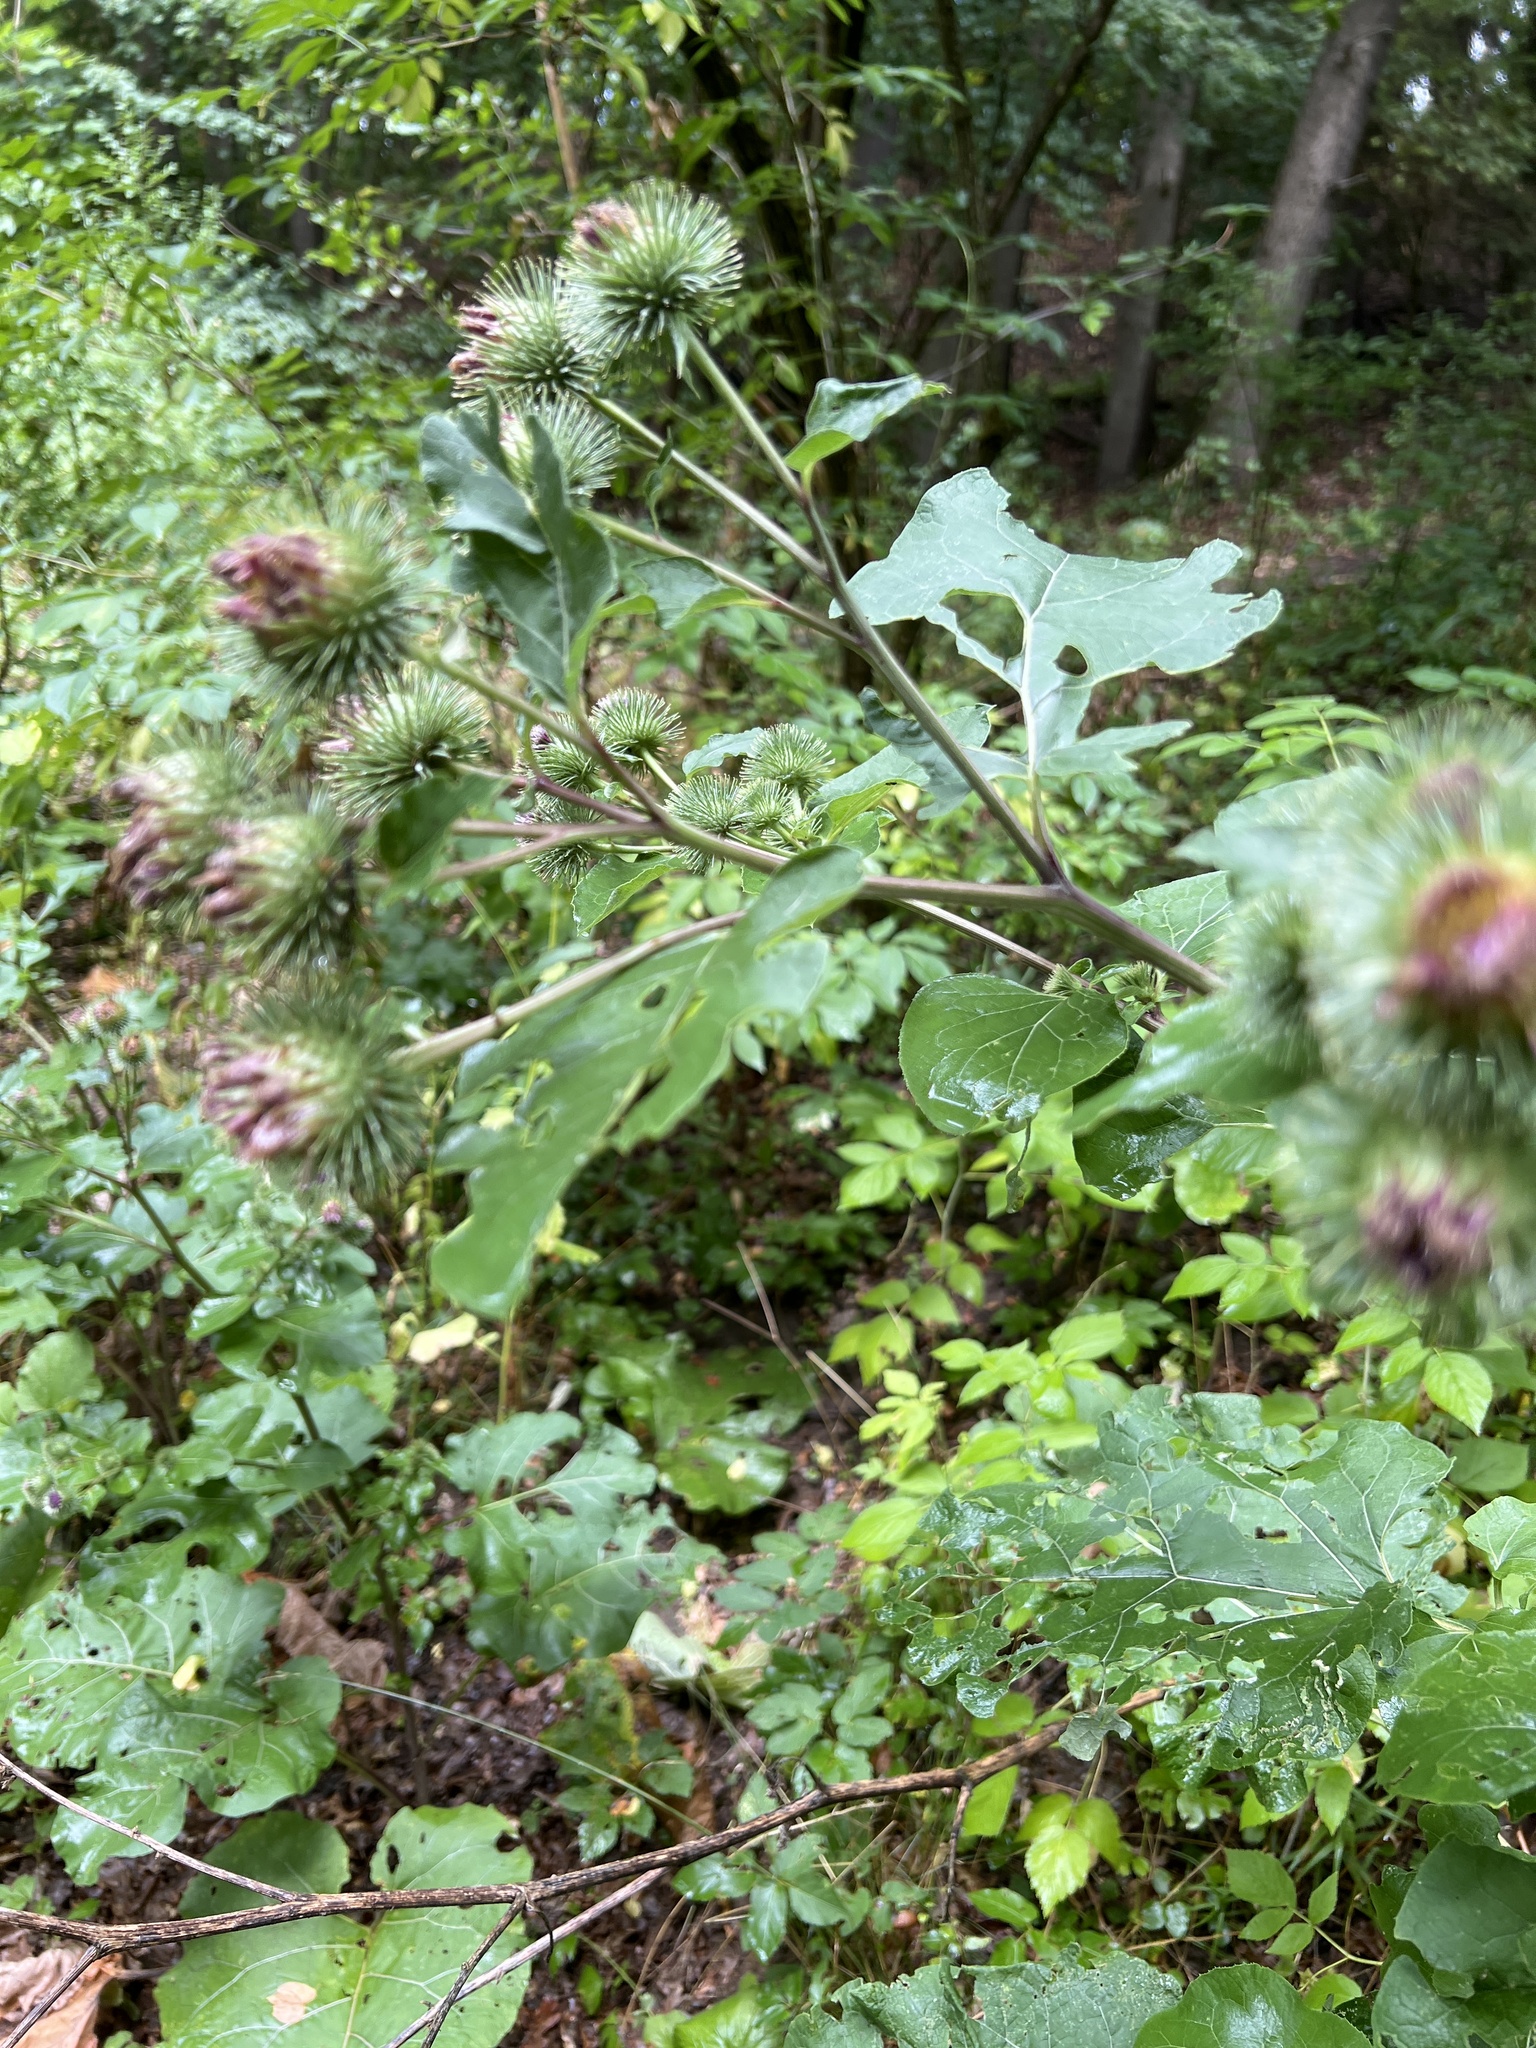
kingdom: Plantae
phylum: Tracheophyta
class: Magnoliopsida
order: Asterales
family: Asteraceae
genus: Arctium
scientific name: Arctium lappa
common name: Greater burdock
